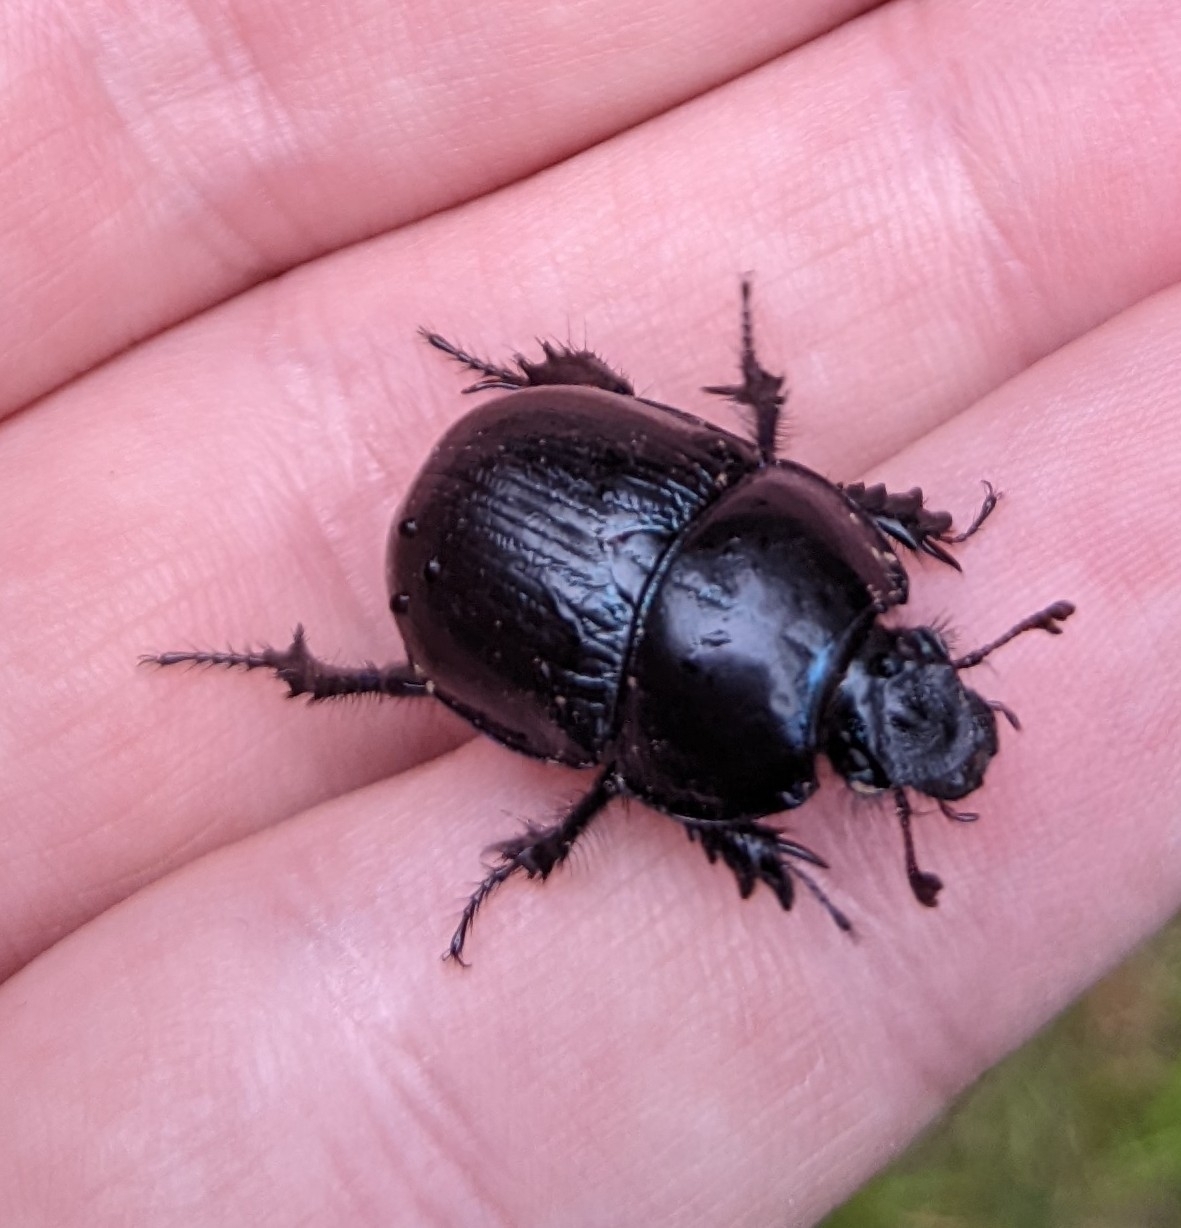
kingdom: Animalia
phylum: Arthropoda
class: Insecta
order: Coleoptera
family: Geotrupidae
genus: Anoplotrupes
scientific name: Anoplotrupes stercorosus
